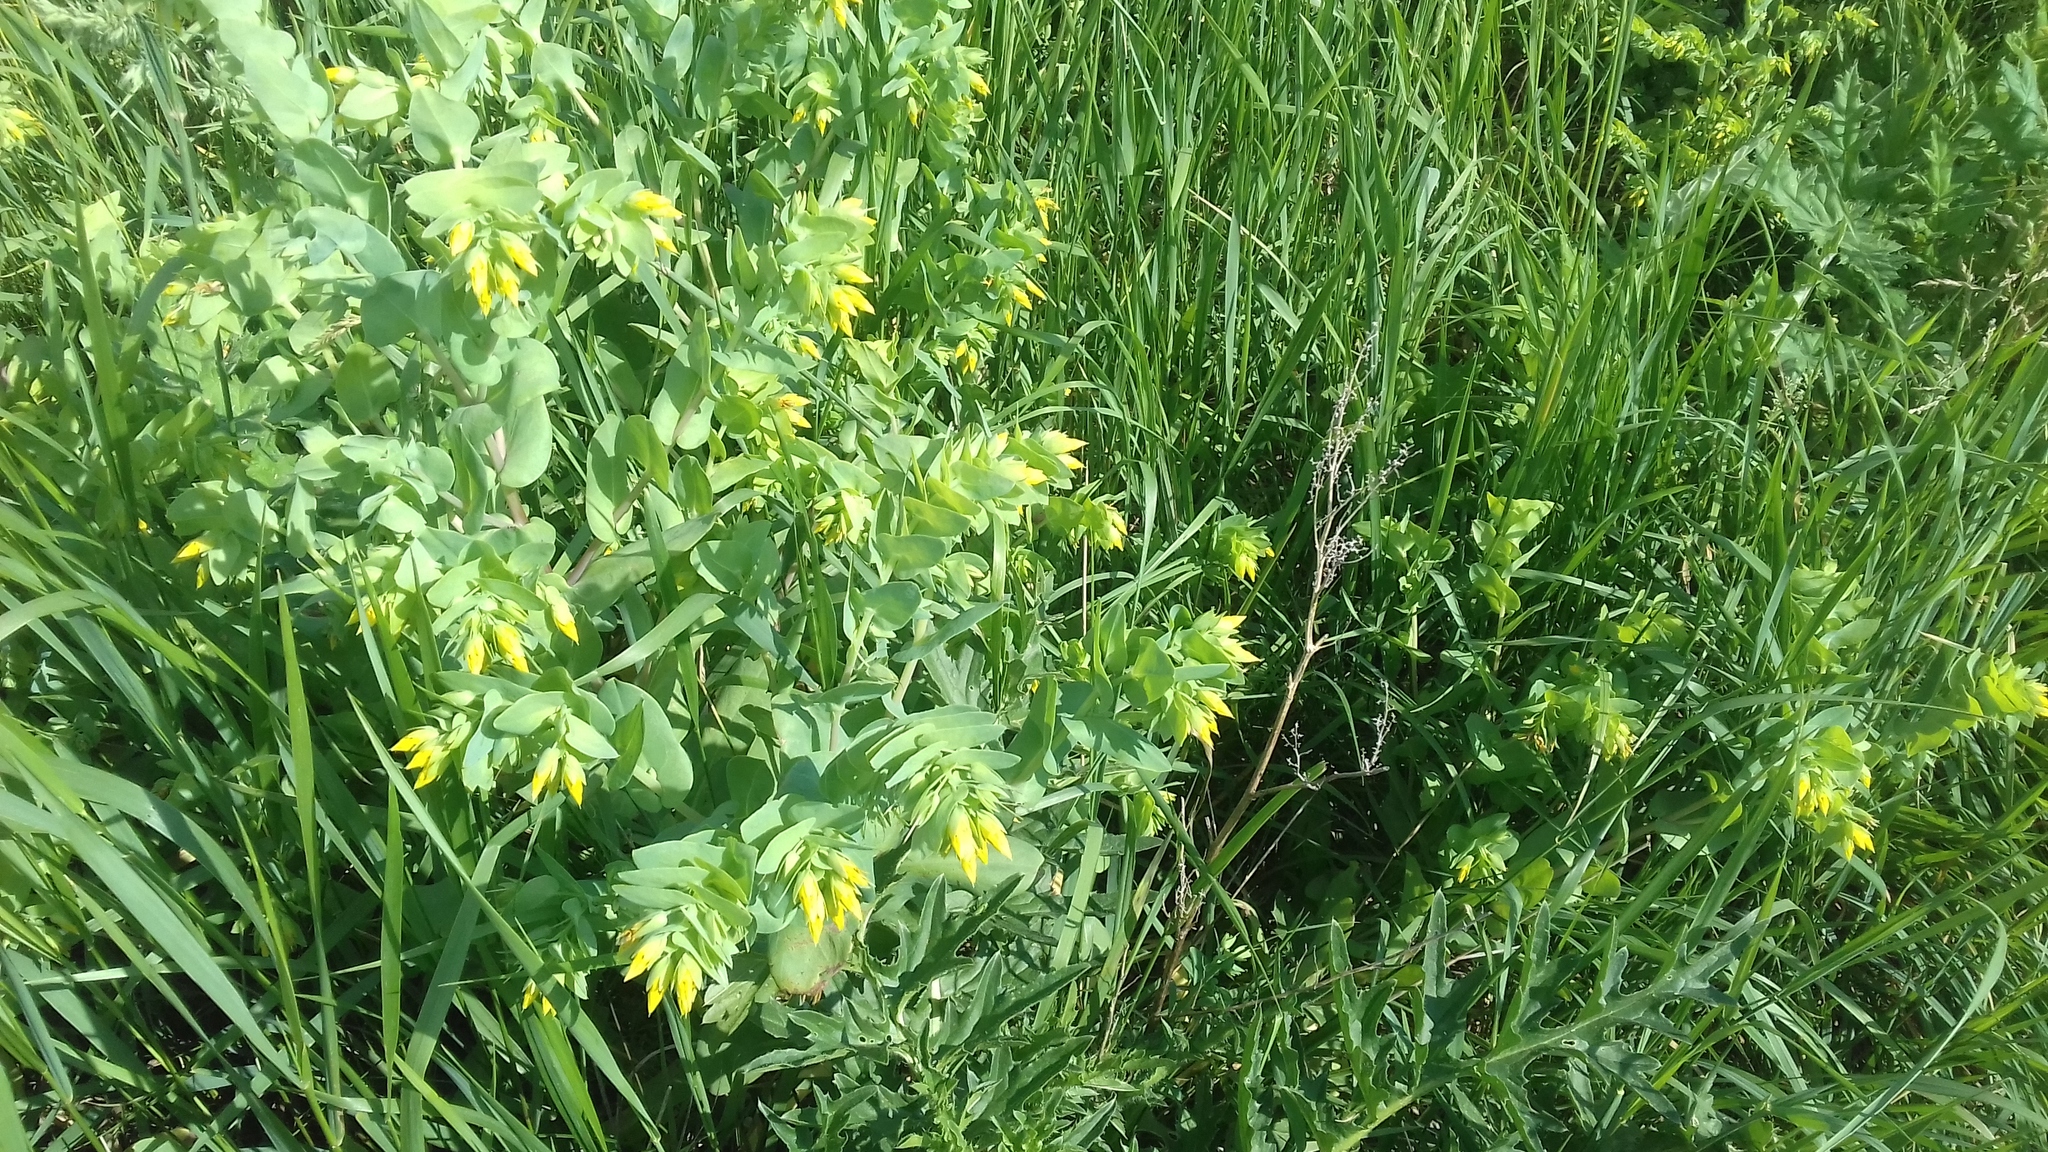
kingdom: Plantae
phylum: Tracheophyta
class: Magnoliopsida
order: Boraginales
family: Boraginaceae
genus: Cerinthe
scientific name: Cerinthe minor
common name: Lesser honeywort
